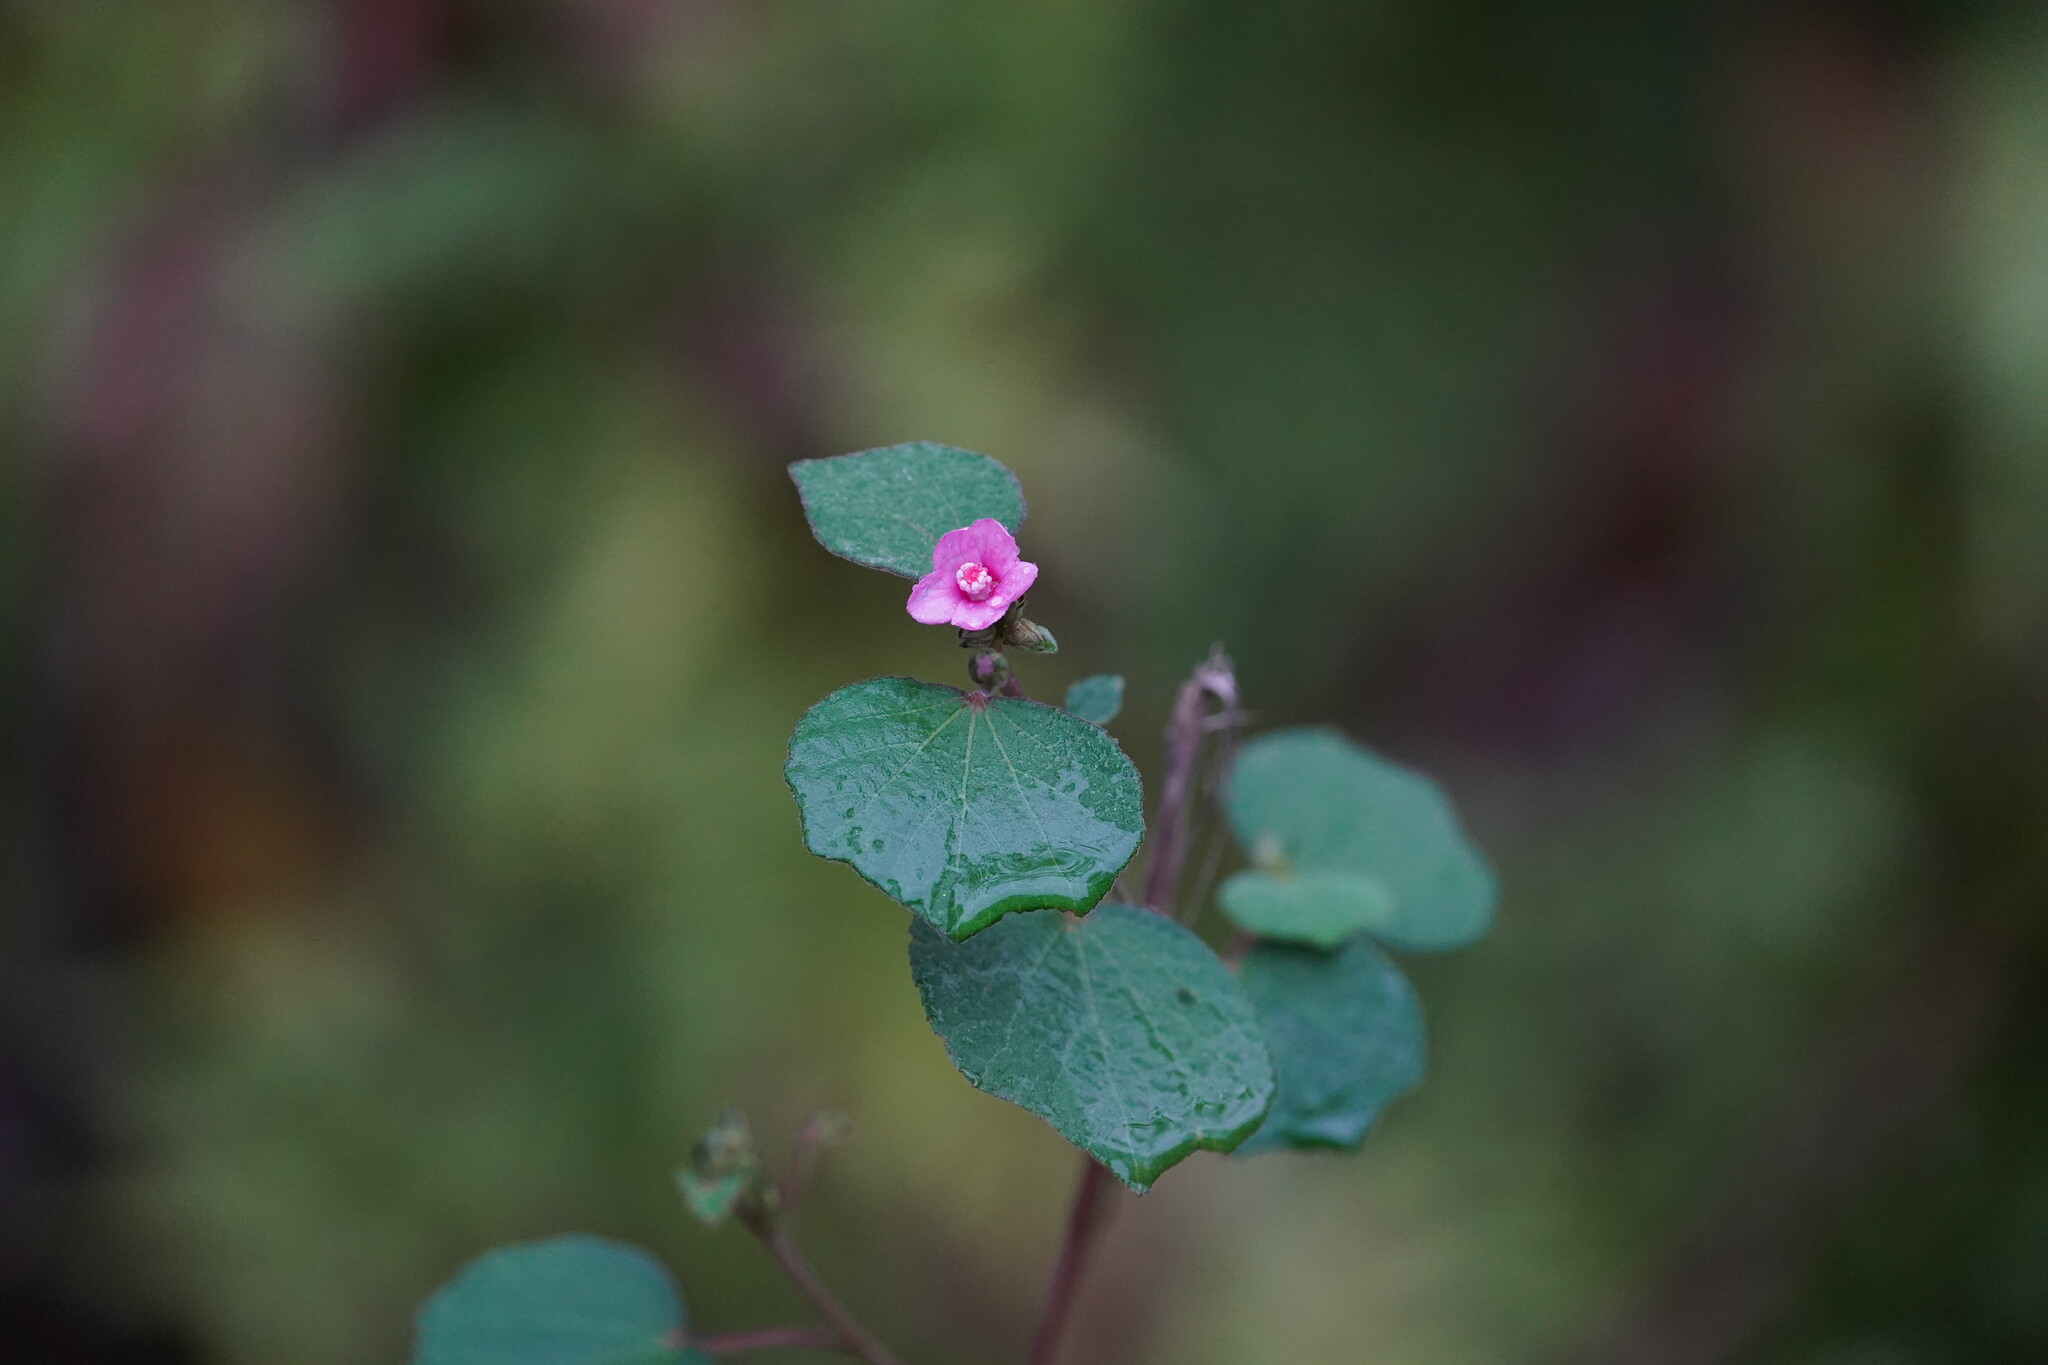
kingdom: Plantae
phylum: Tracheophyta
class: Magnoliopsida
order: Malvales
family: Malvaceae
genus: Urena
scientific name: Urena lobata
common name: Caesarweed
